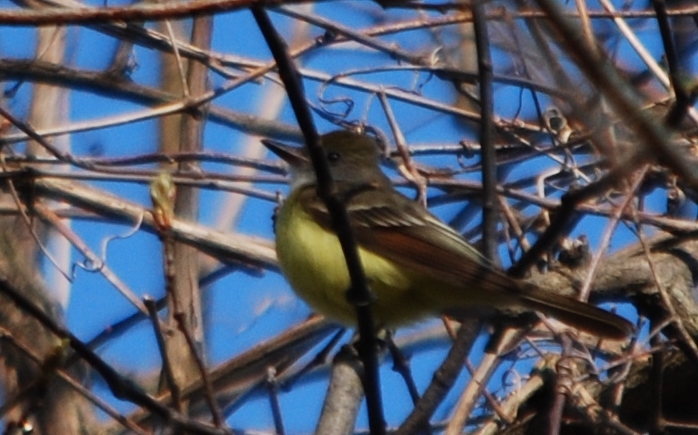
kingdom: Animalia
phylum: Chordata
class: Aves
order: Passeriformes
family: Tyrannidae
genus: Myiarchus
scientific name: Myiarchus crinitus
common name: Great crested flycatcher
